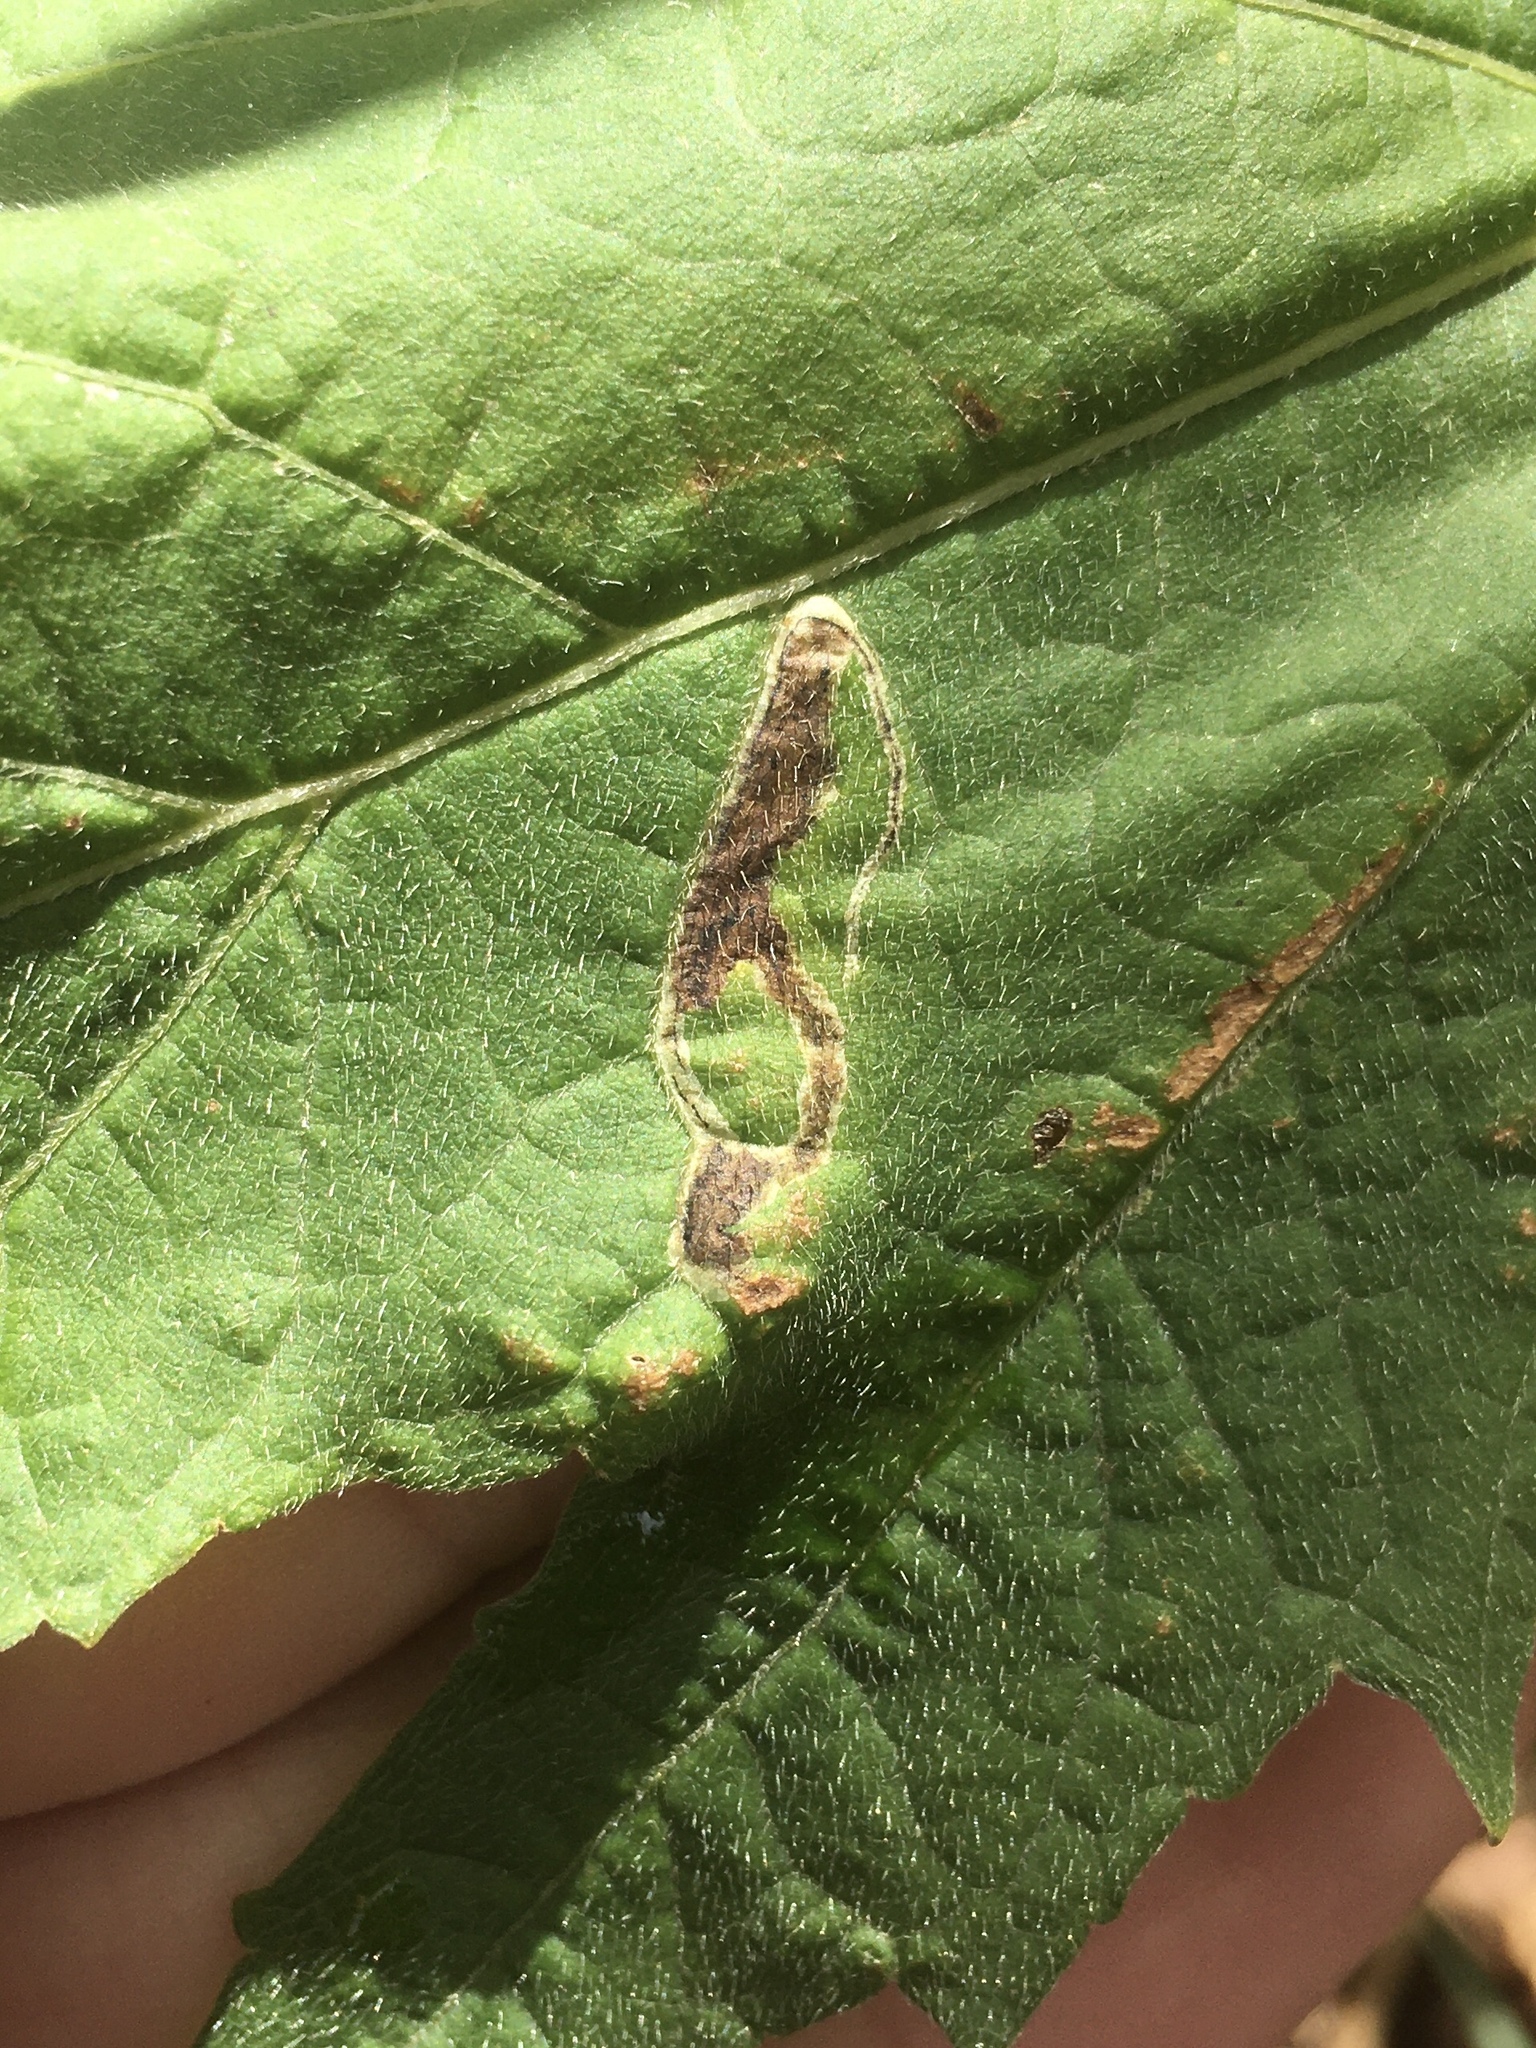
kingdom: Animalia
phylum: Arthropoda
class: Insecta
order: Diptera
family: Agromyzidae
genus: Calycomyza
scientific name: Calycomyza malvae
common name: Mallow leaf miner
